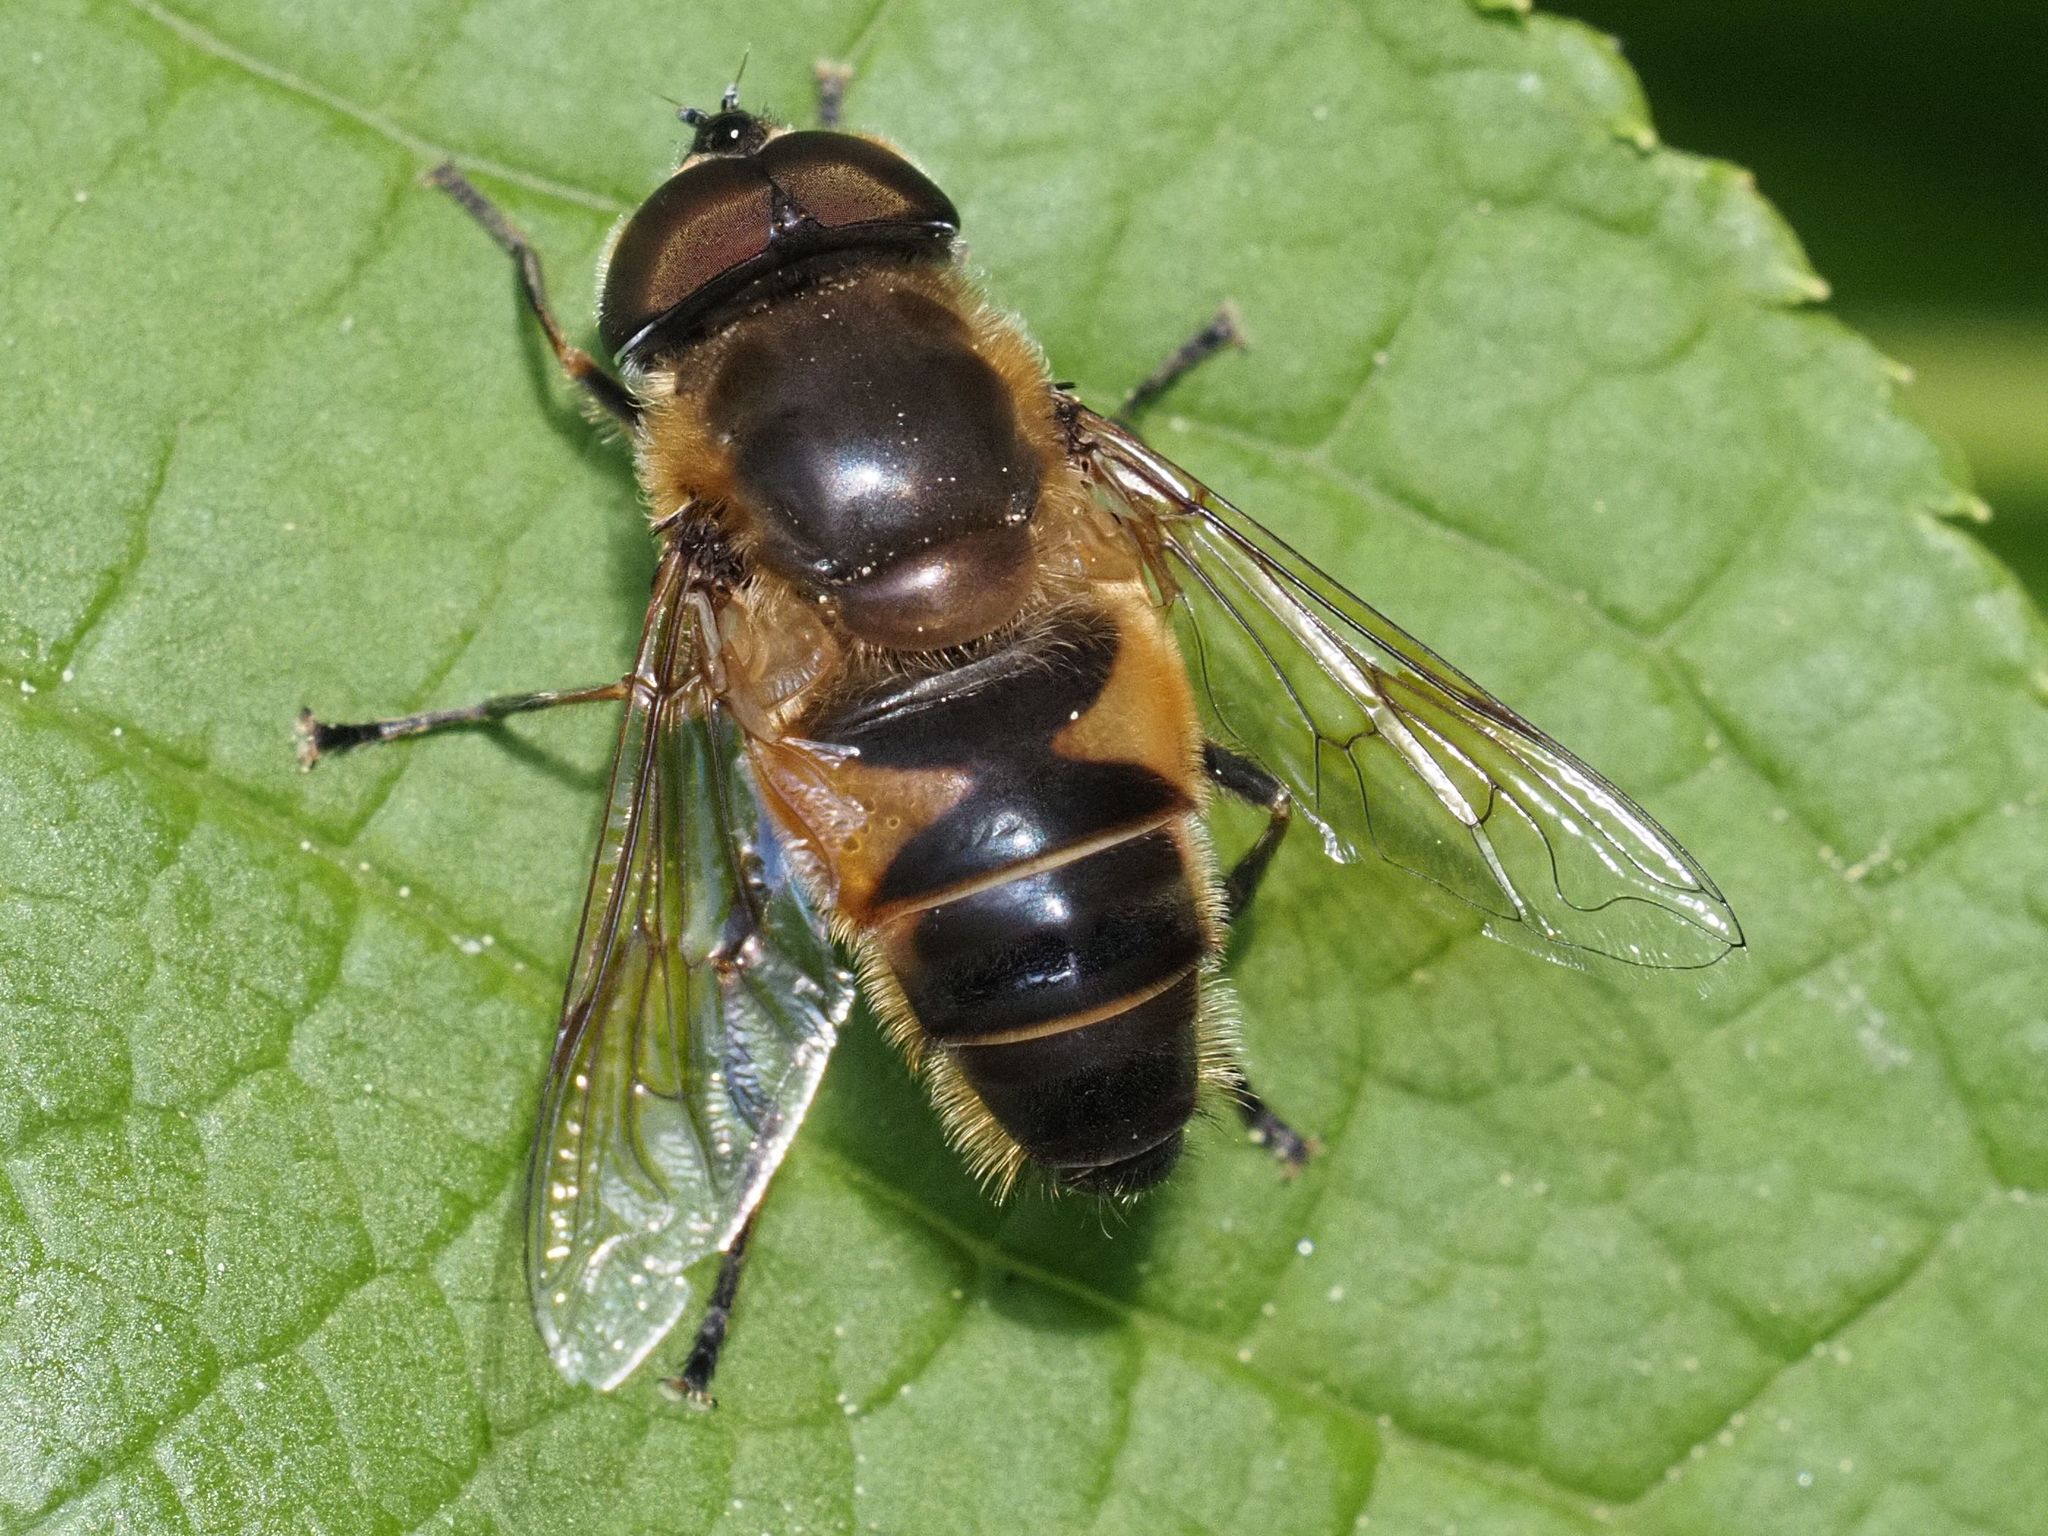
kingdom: Animalia
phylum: Arthropoda
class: Insecta
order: Diptera
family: Syrphidae
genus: Eristalis
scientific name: Eristalis pertinax
